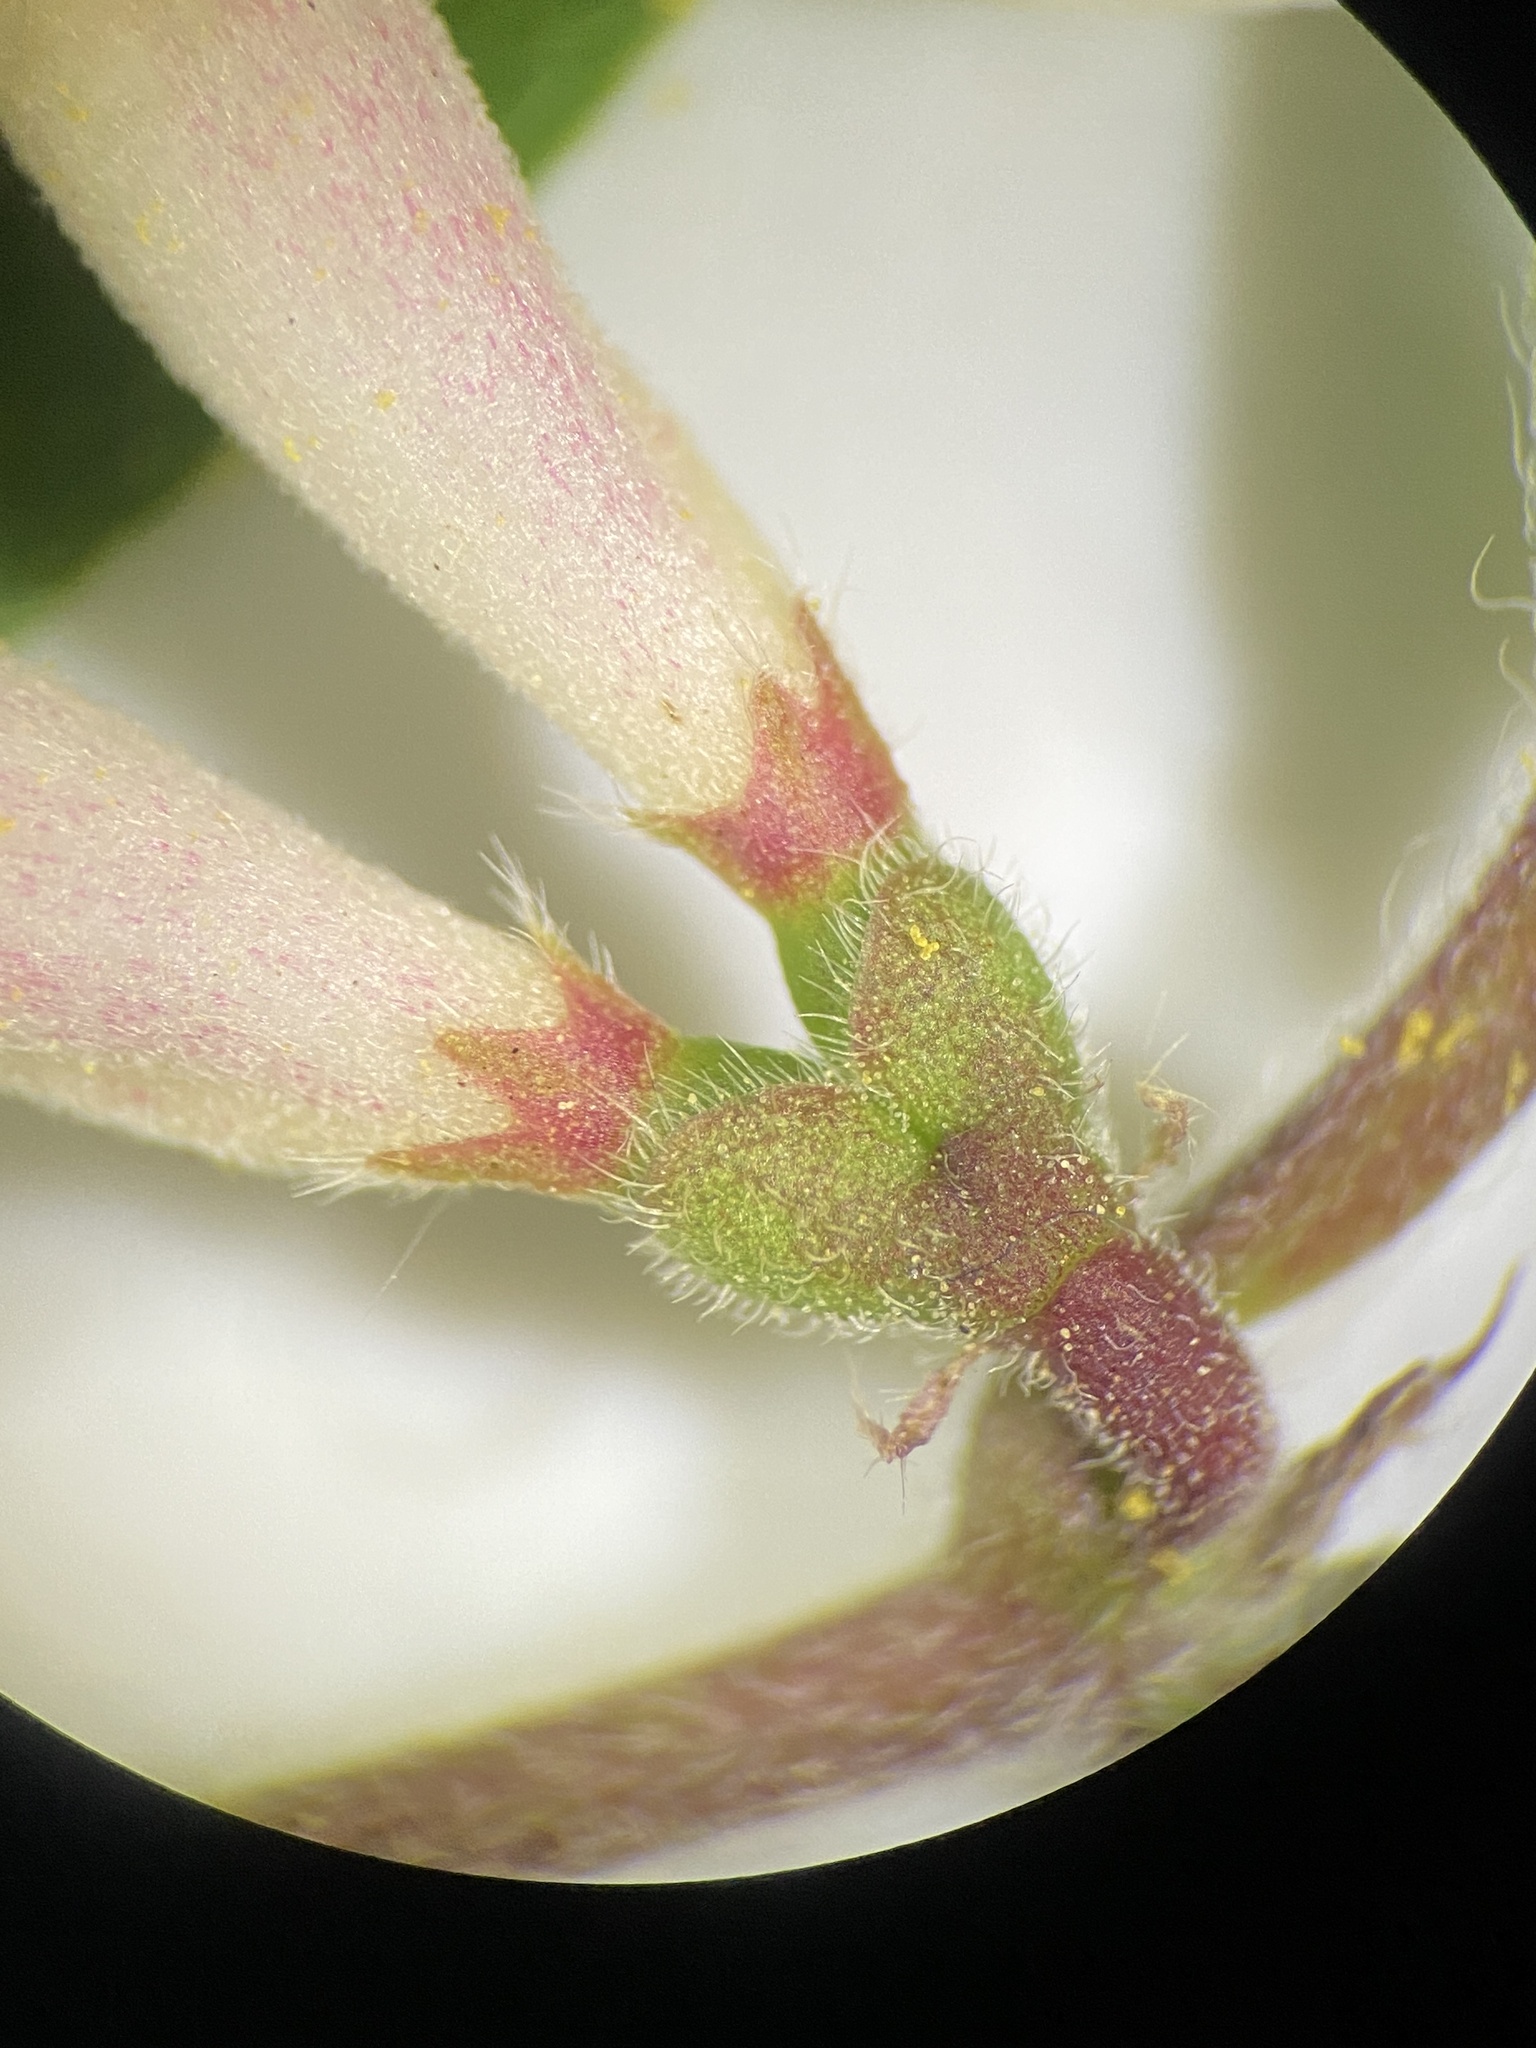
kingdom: Plantae
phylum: Tracheophyta
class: Magnoliopsida
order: Dipsacales
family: Caprifoliaceae
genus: Lonicera
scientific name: Lonicera maackii
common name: Amur honeysuckle
